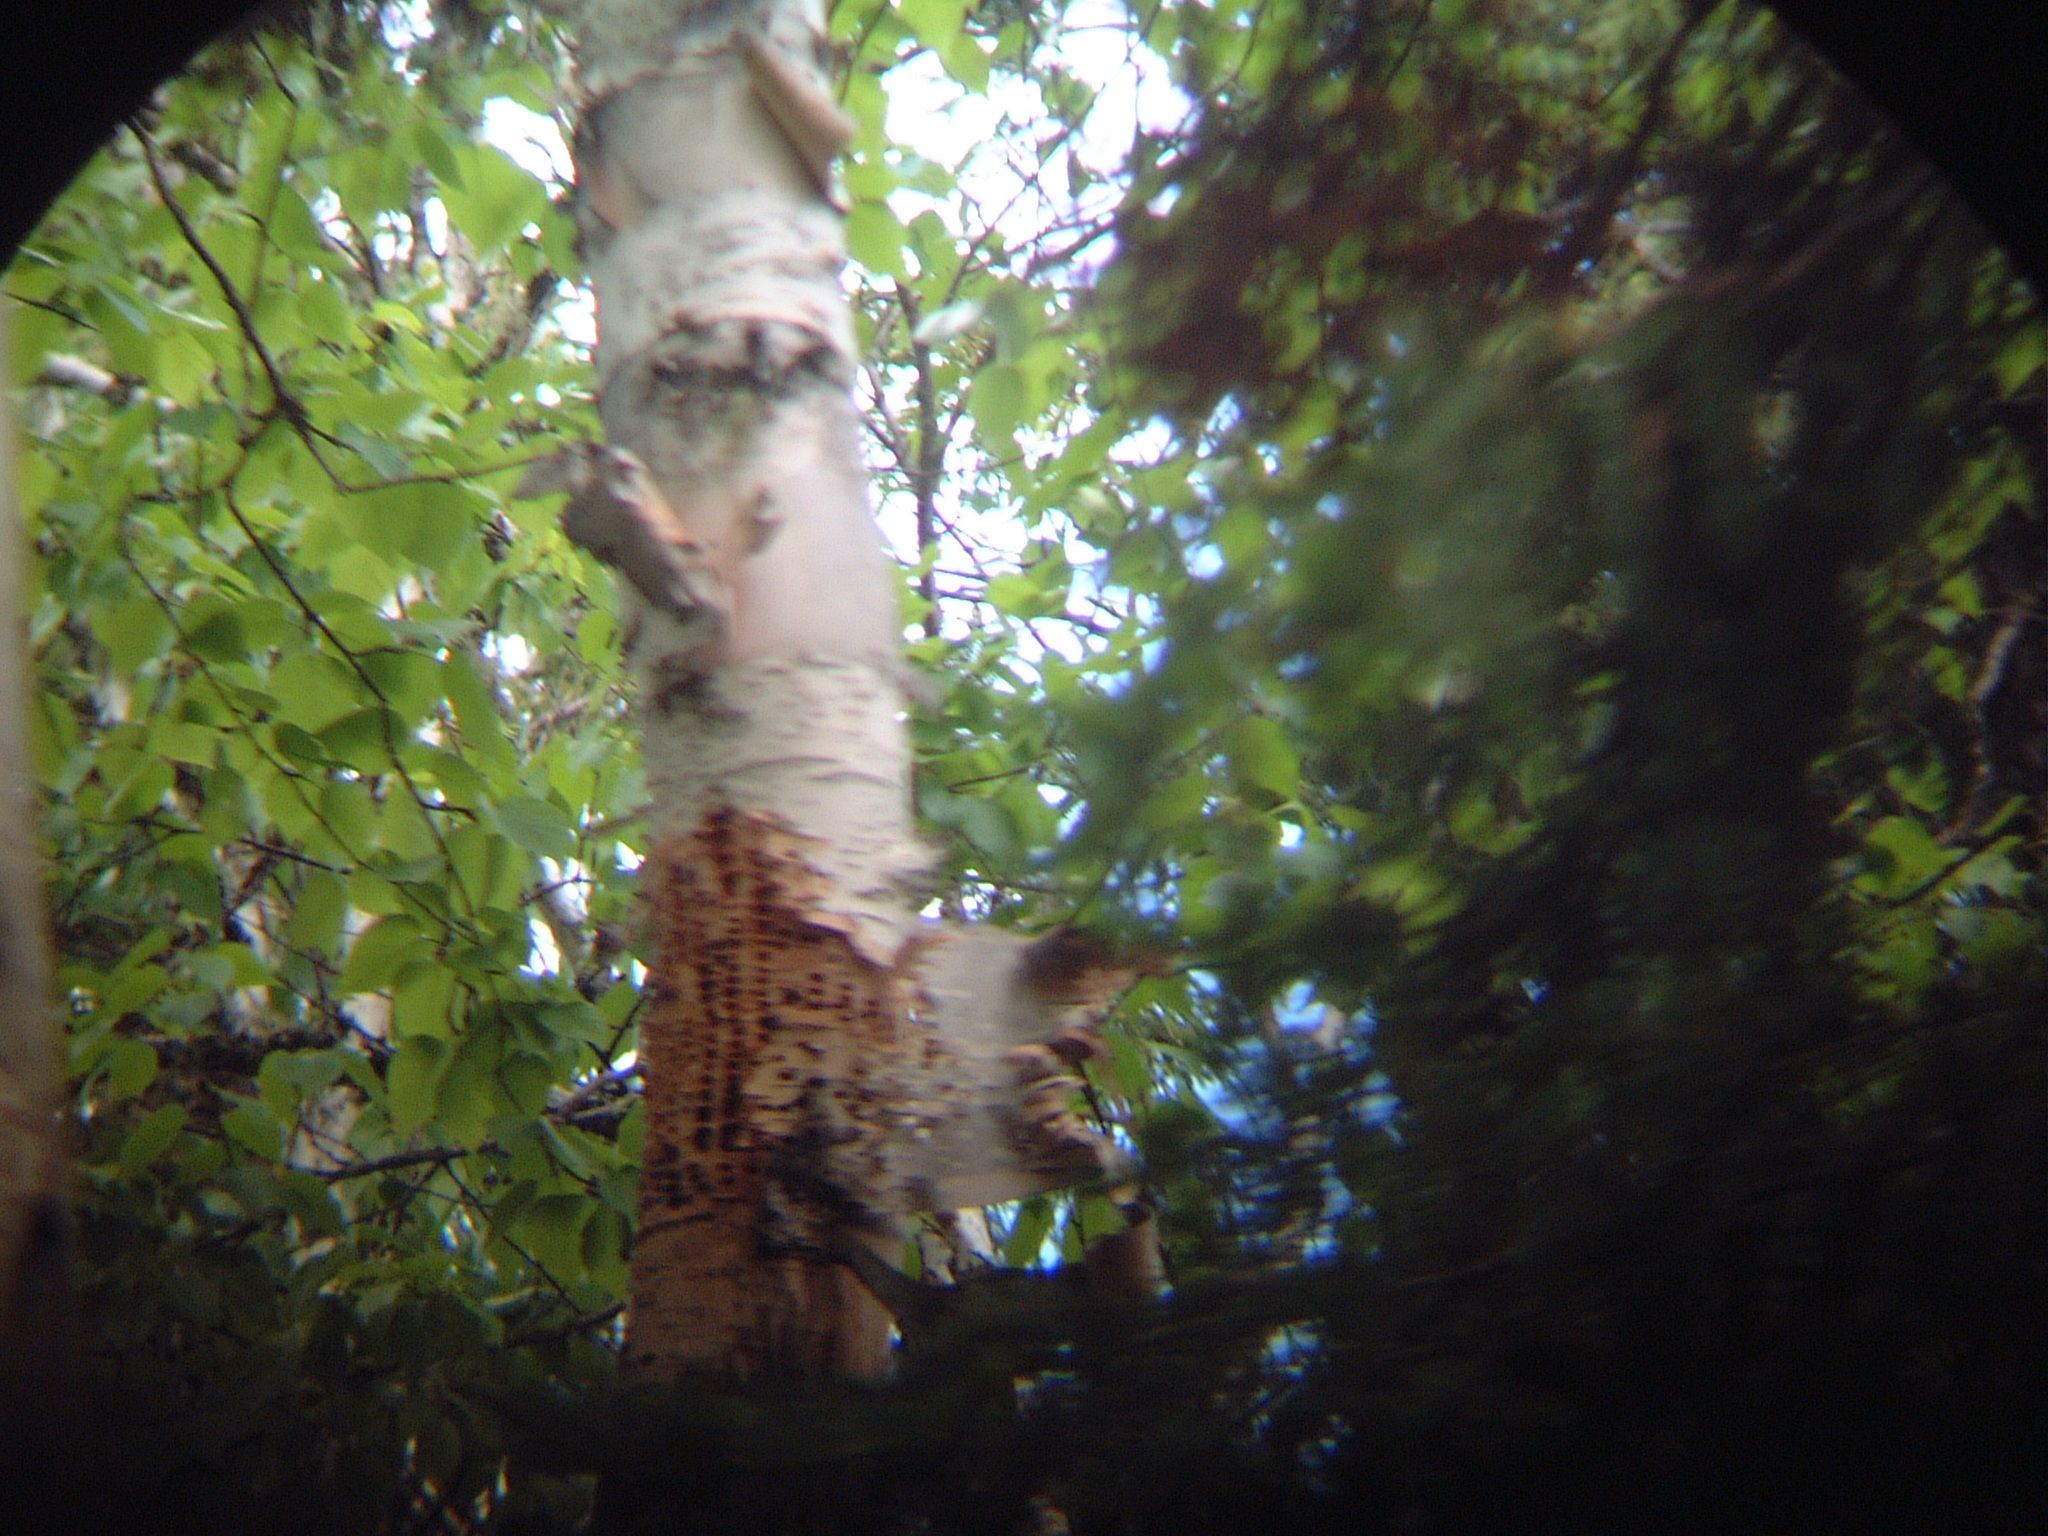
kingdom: Animalia
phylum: Chordata
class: Aves
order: Piciformes
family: Picidae
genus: Sphyrapicus
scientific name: Sphyrapicus varius
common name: Yellow-bellied sapsucker
